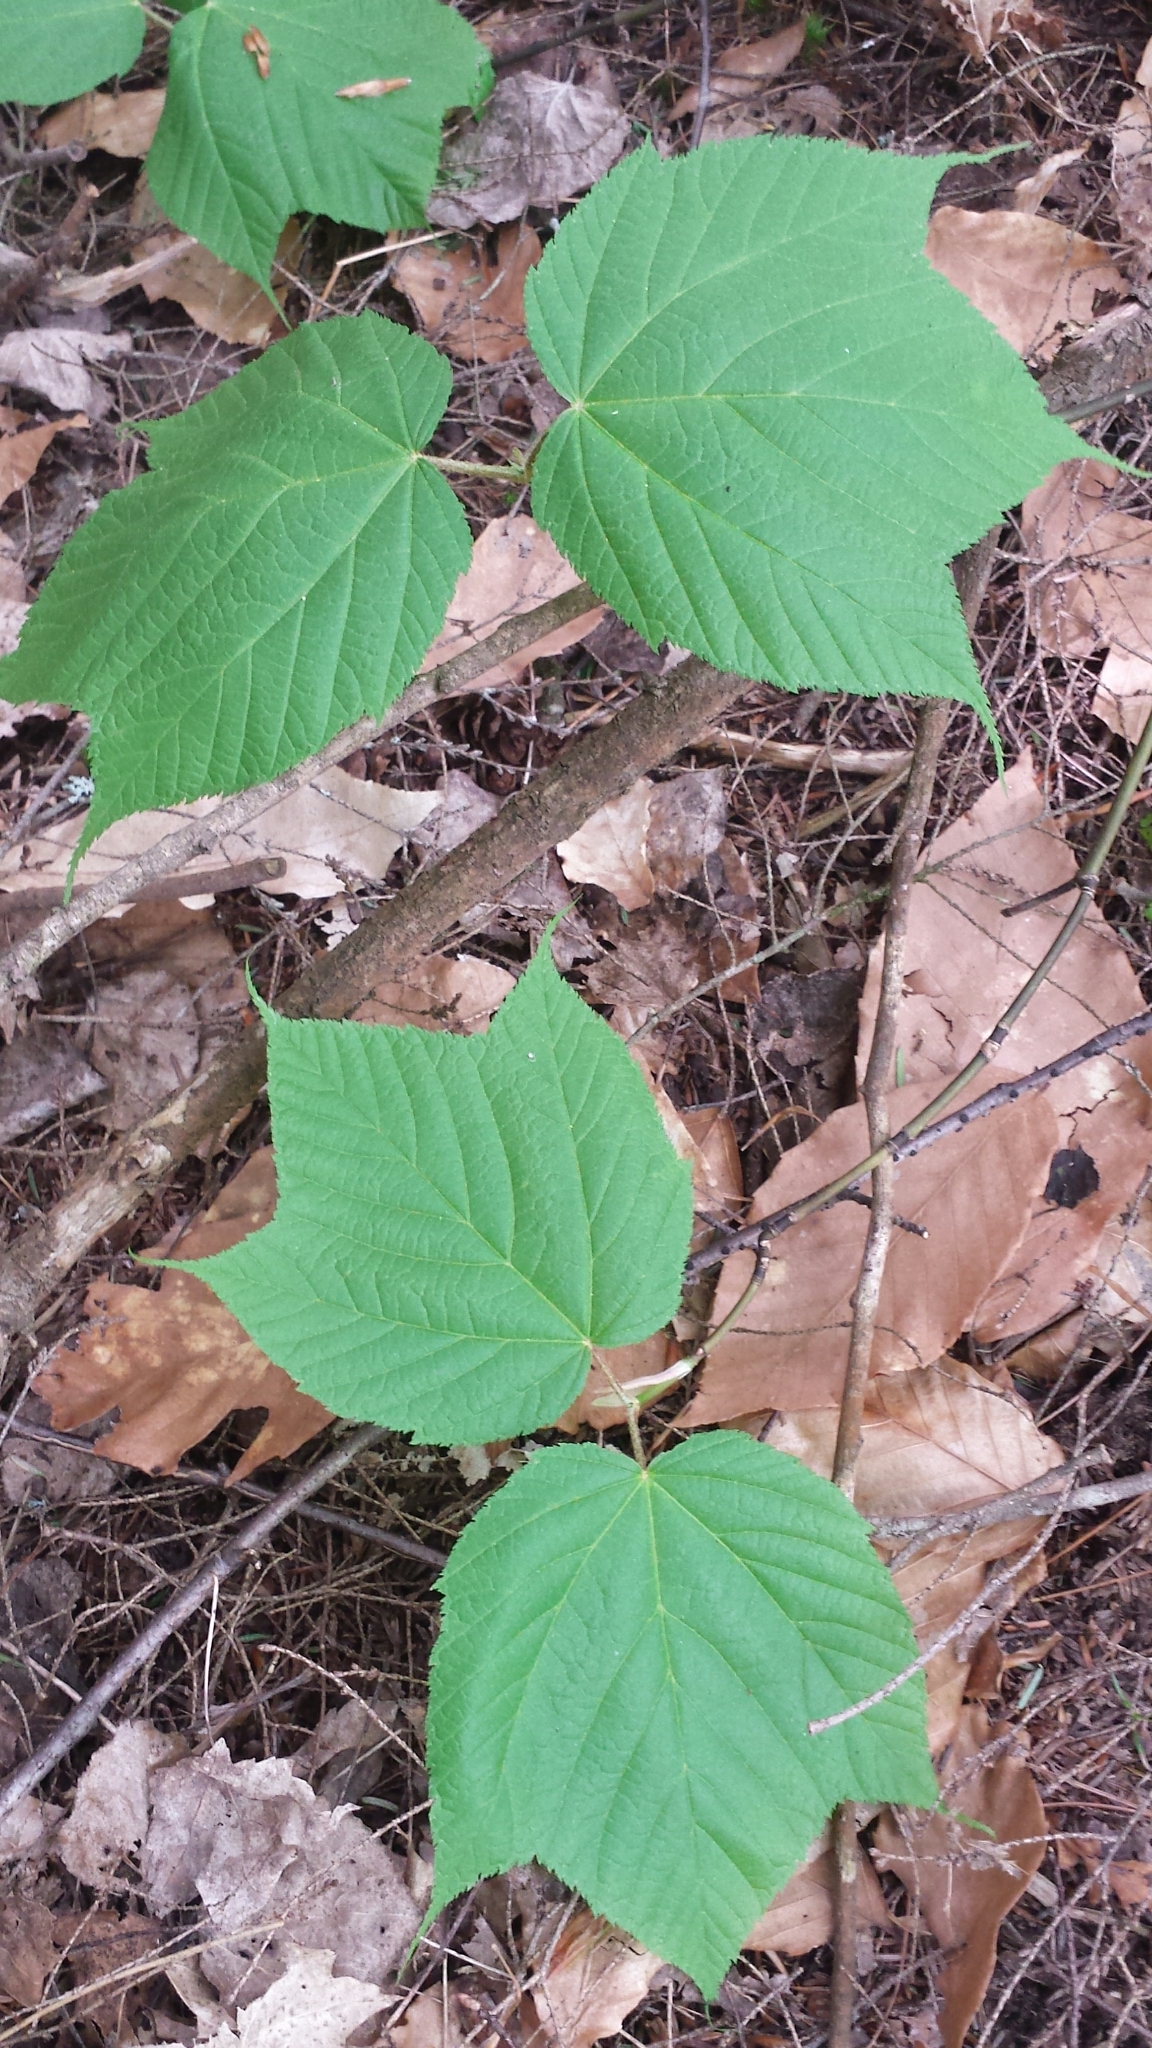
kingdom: Plantae
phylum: Tracheophyta
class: Magnoliopsida
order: Sapindales
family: Sapindaceae
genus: Acer
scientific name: Acer pensylvanicum
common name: Moosewood
